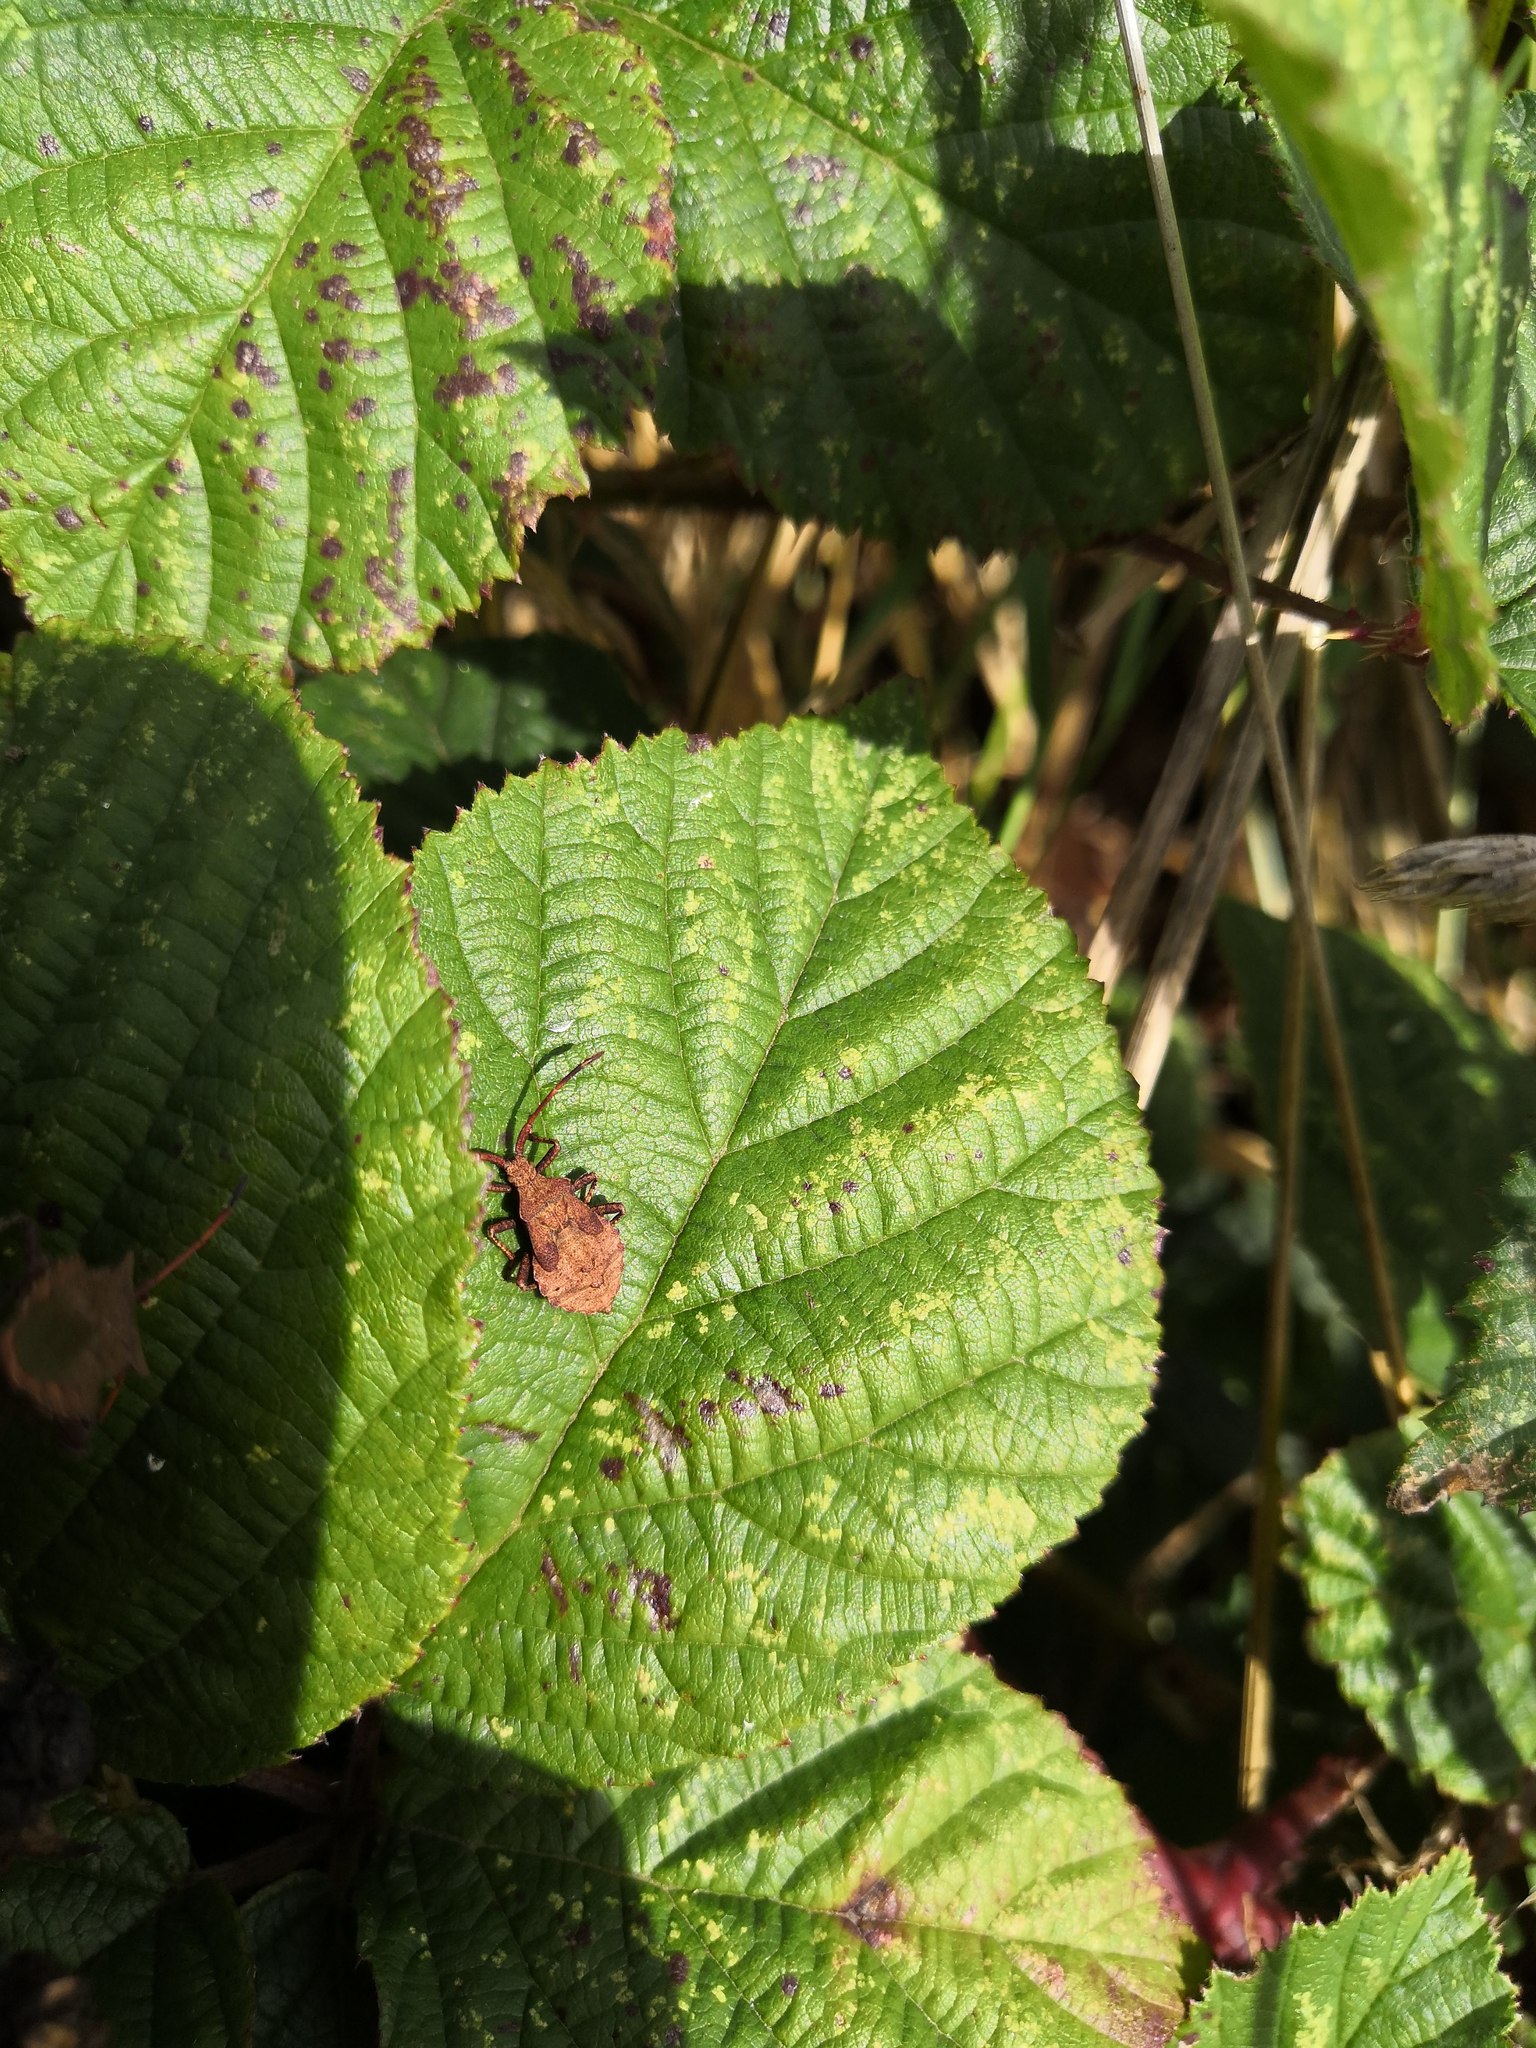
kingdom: Animalia
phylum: Arthropoda
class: Insecta
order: Hemiptera
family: Coreidae
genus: Coreus
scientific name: Coreus marginatus
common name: Dock bug
